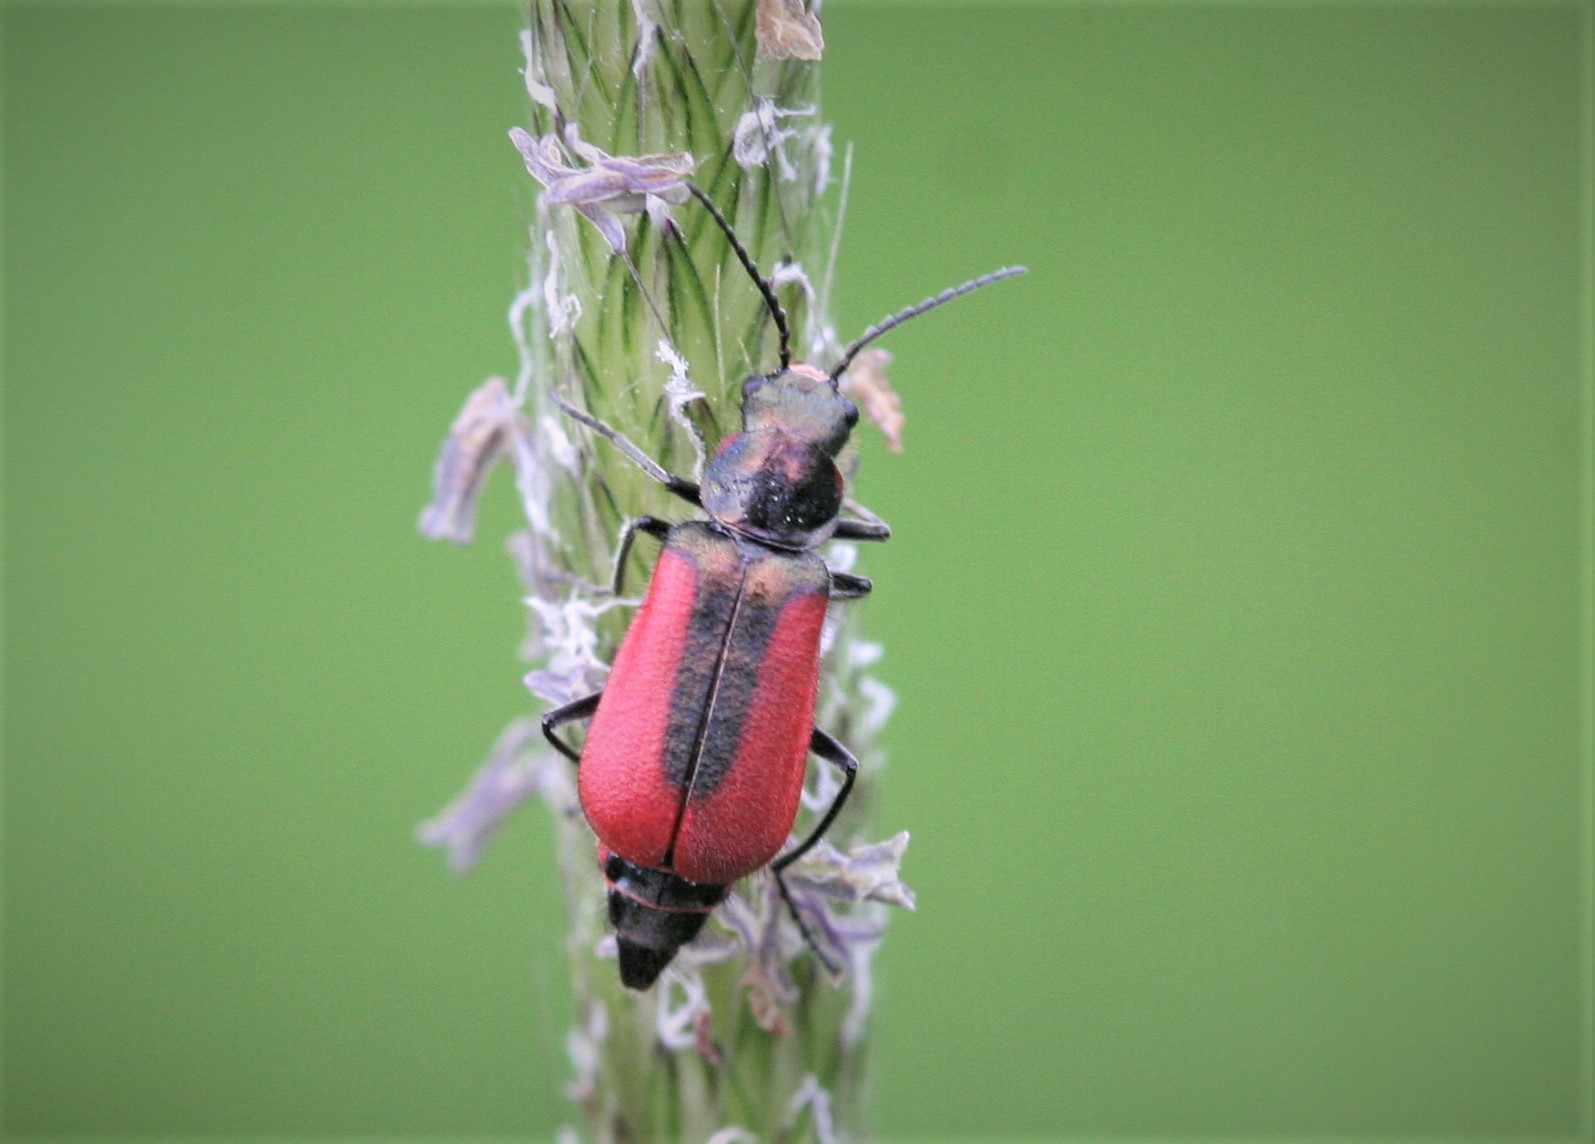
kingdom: Animalia
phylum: Arthropoda
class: Insecta
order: Coleoptera
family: Melyridae
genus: Malachius
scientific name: Malachius aeneus
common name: Scarlet malachite beetle
